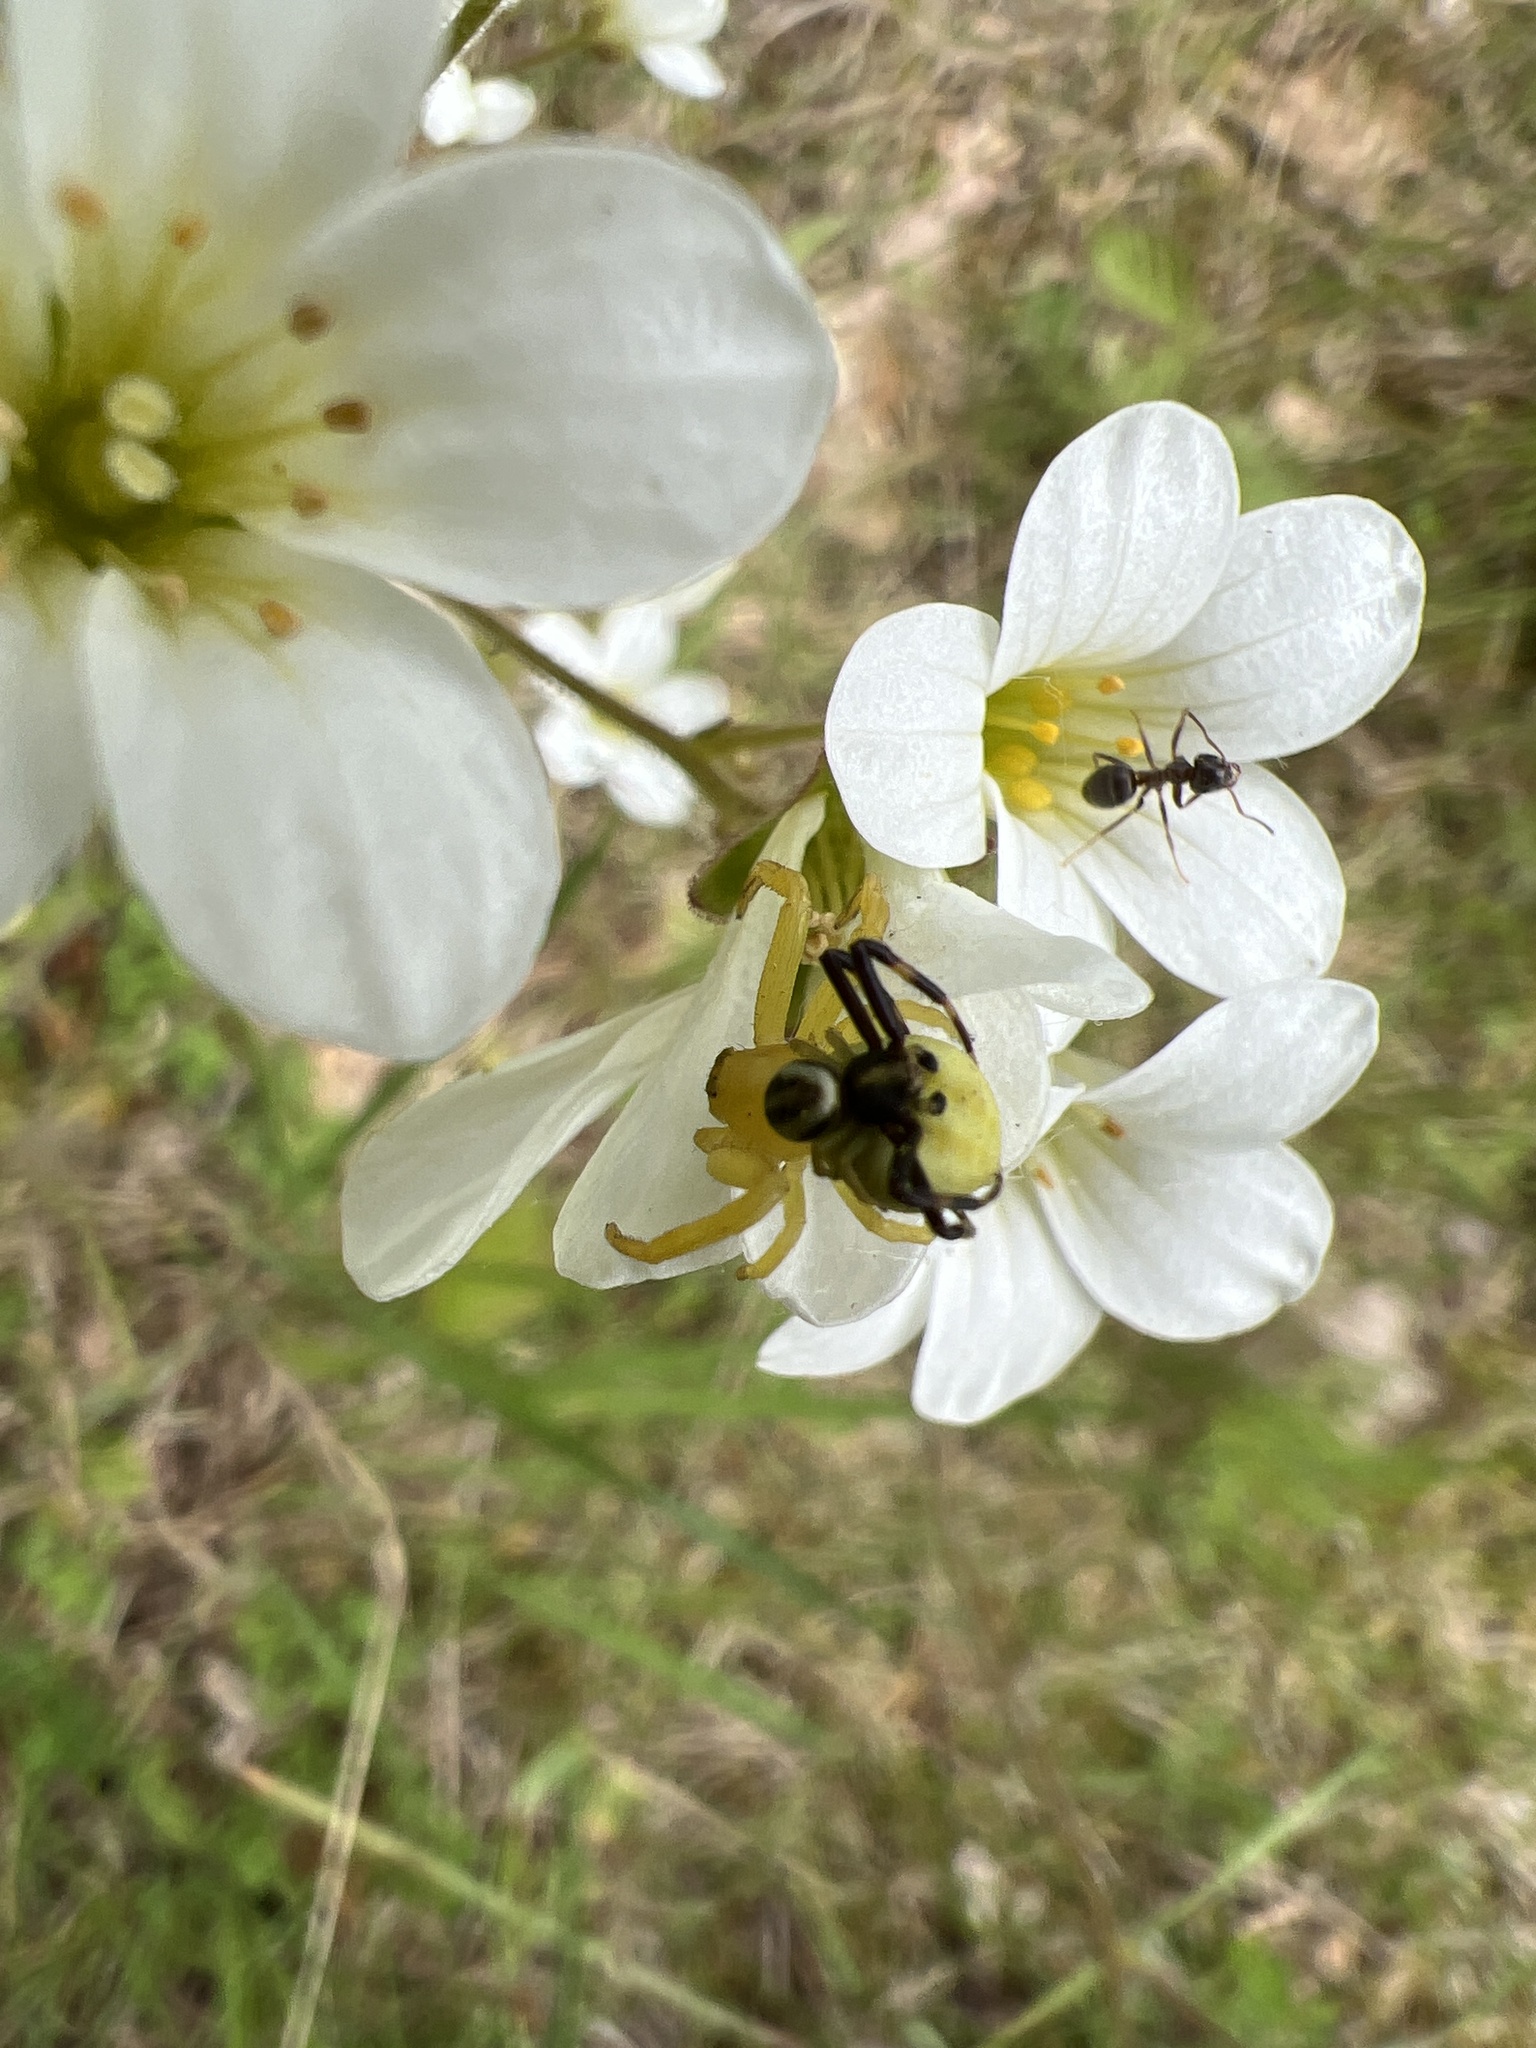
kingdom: Animalia
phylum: Arthropoda
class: Arachnida
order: Araneae
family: Thomisidae
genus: Misumena
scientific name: Misumena vatia
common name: Goldenrod crab spider
